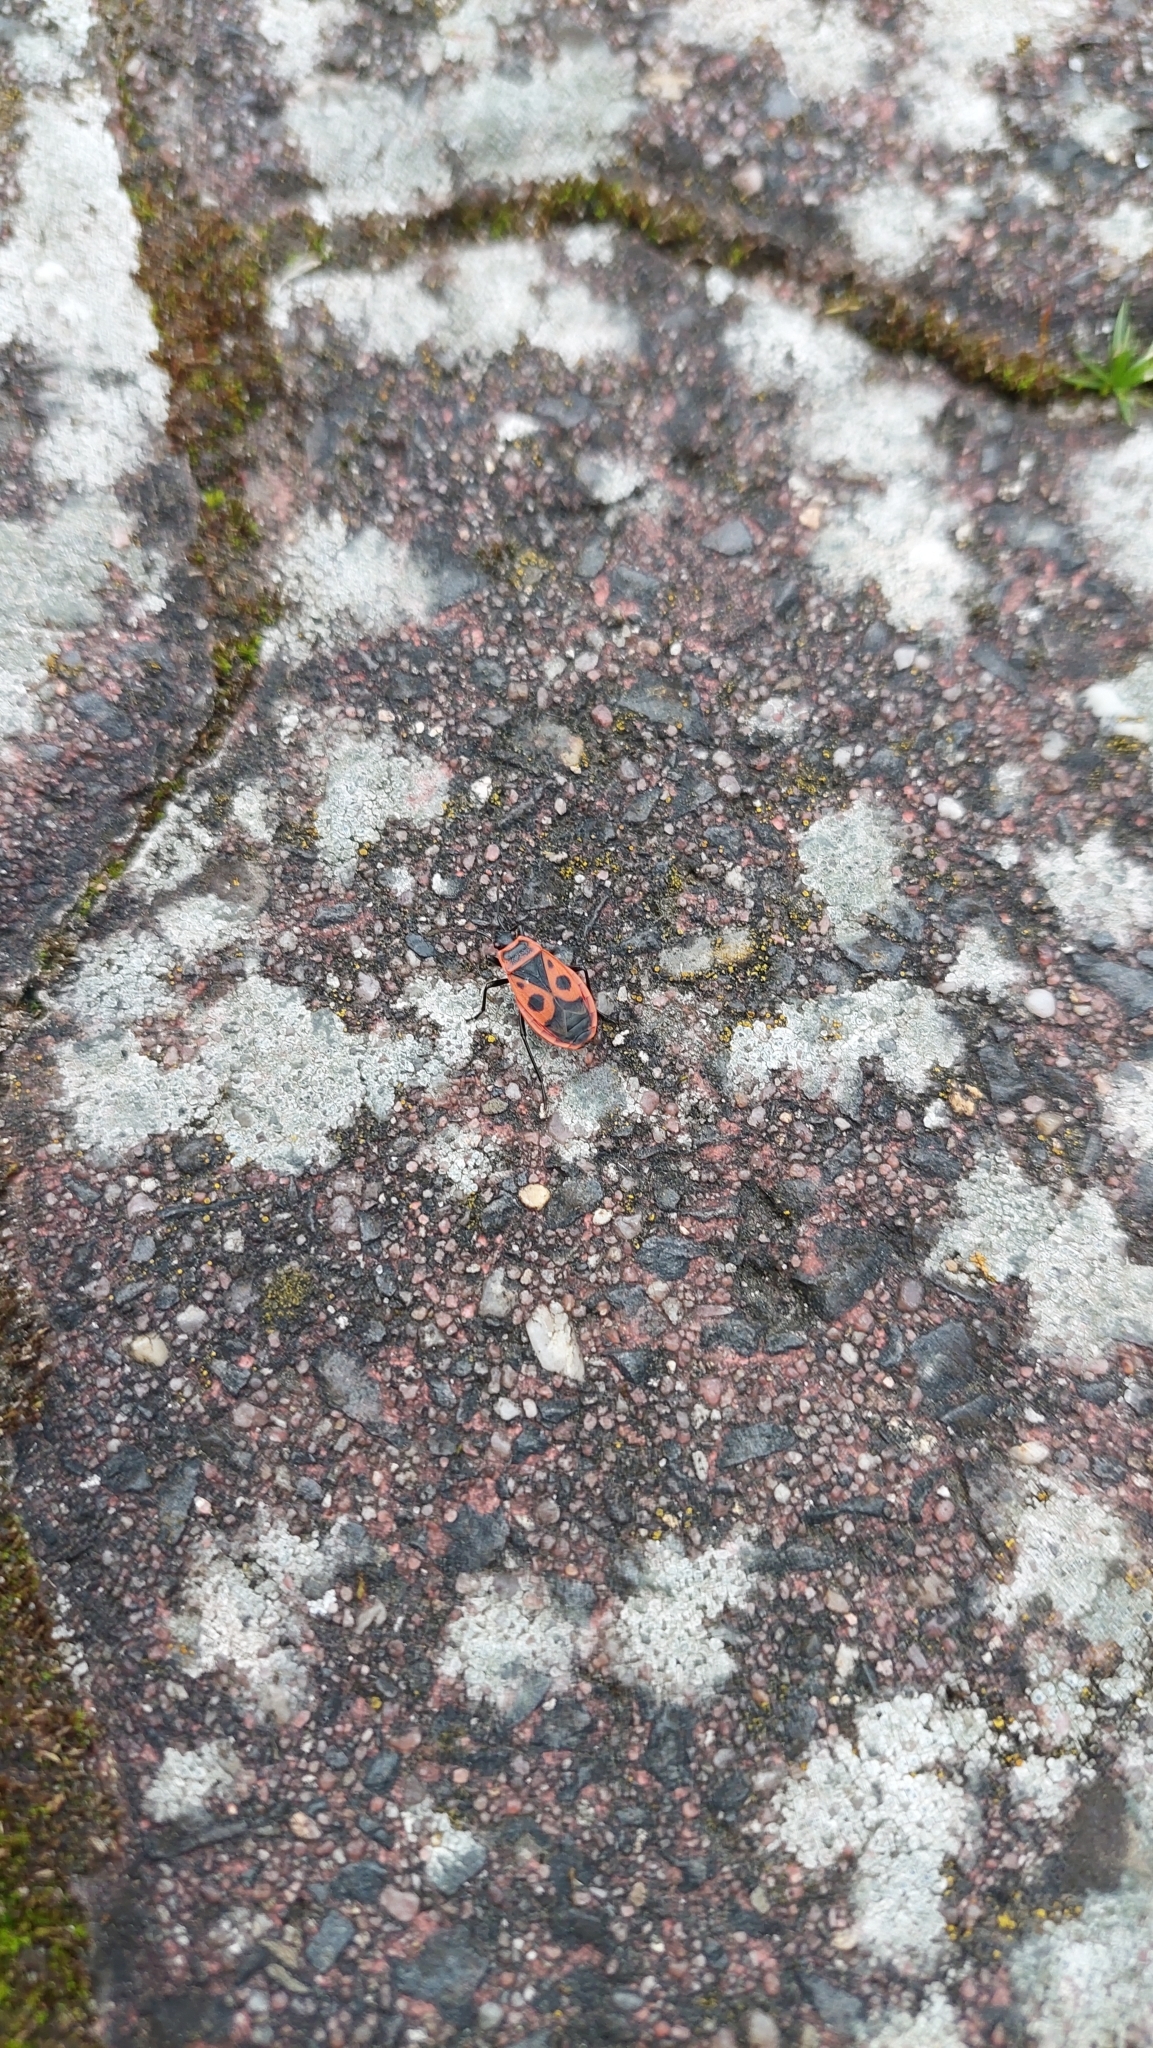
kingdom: Animalia
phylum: Arthropoda
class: Insecta
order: Hemiptera
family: Pyrrhocoridae
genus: Pyrrhocoris
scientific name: Pyrrhocoris apterus
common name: Firebug
